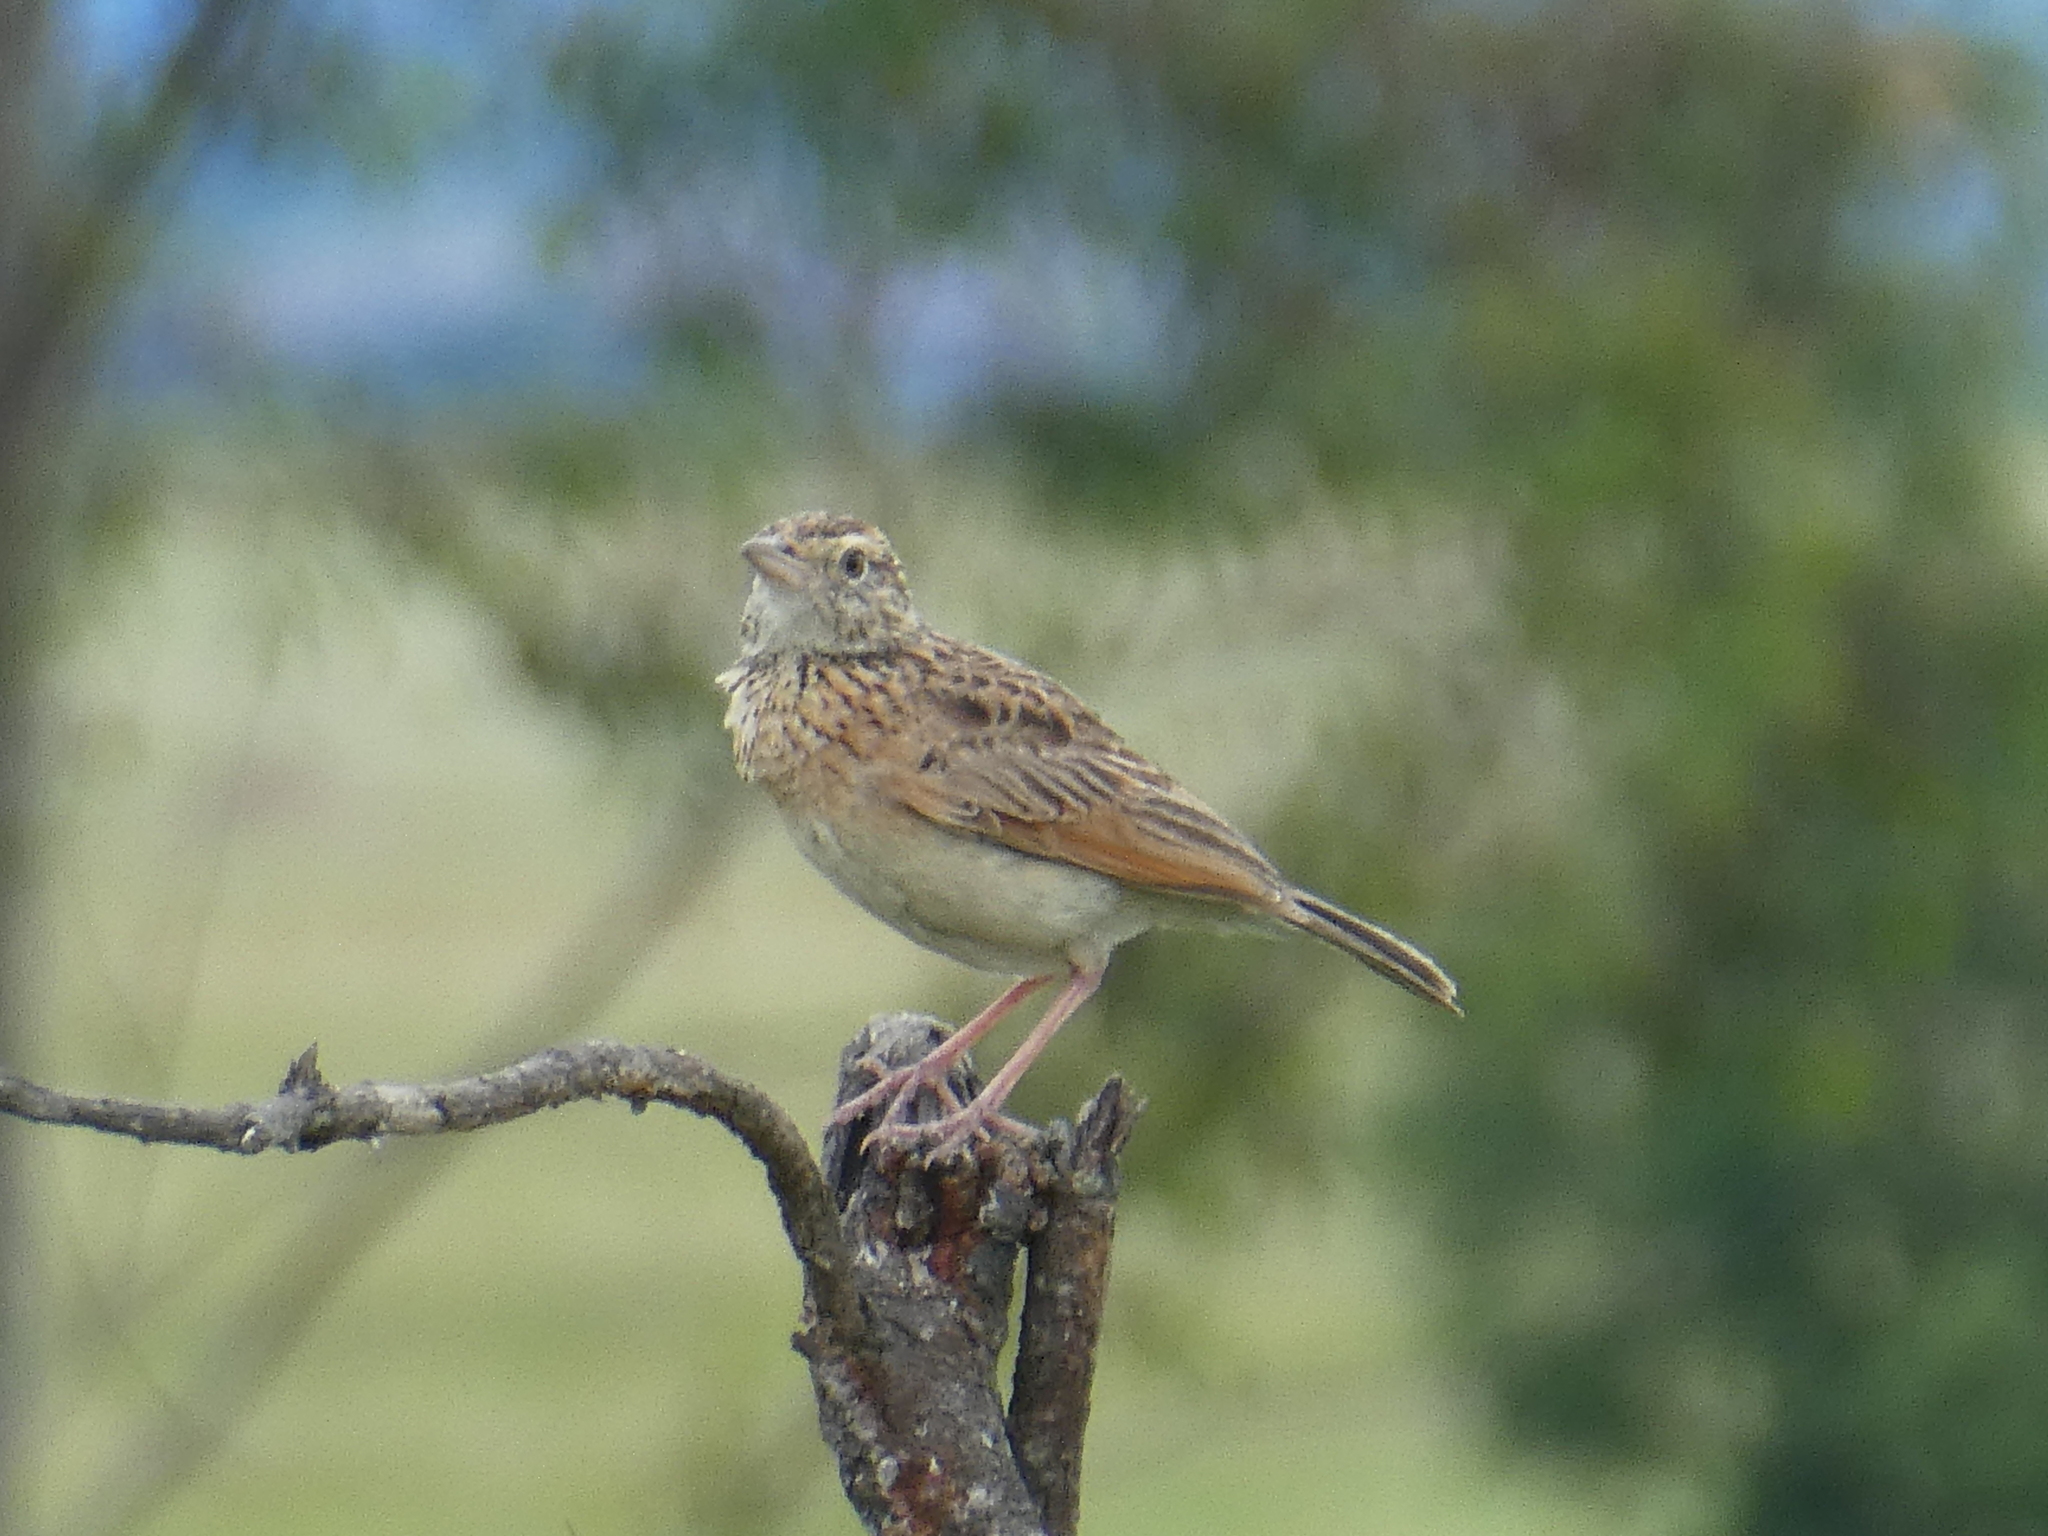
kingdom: Animalia
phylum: Chordata
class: Aves
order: Passeriformes
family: Alaudidae
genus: Mirafra
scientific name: Mirafra africana
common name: Rufous-naped lark
